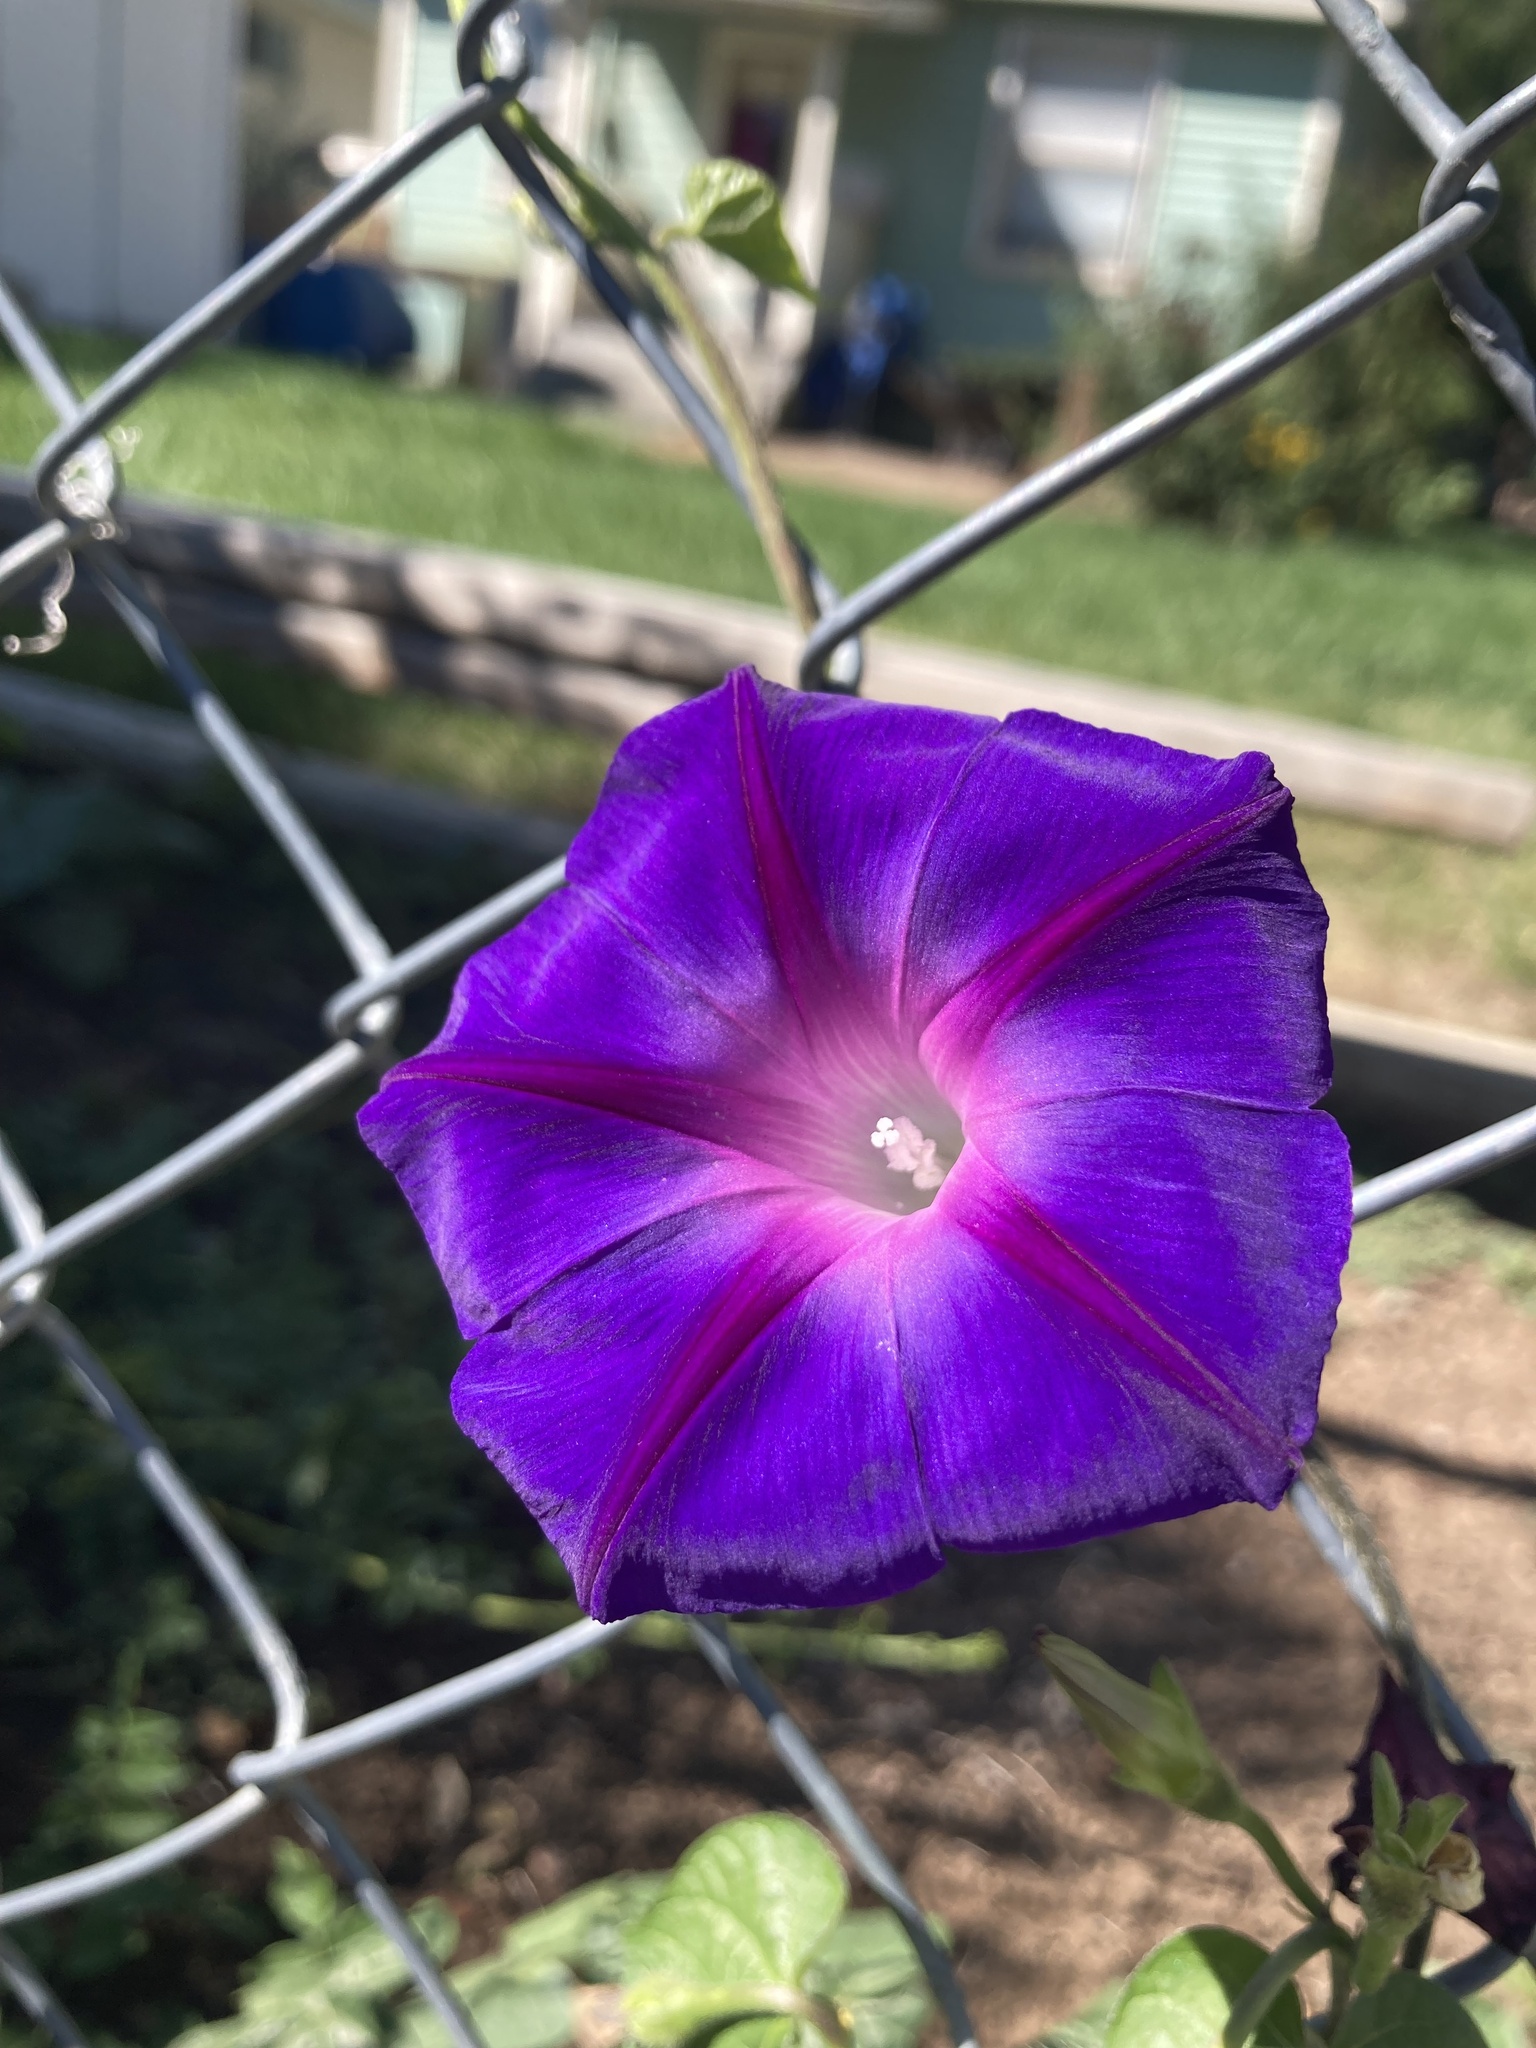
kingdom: Plantae
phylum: Tracheophyta
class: Magnoliopsida
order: Solanales
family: Convolvulaceae
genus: Ipomoea
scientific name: Ipomoea purpurea
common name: Common morning-glory
